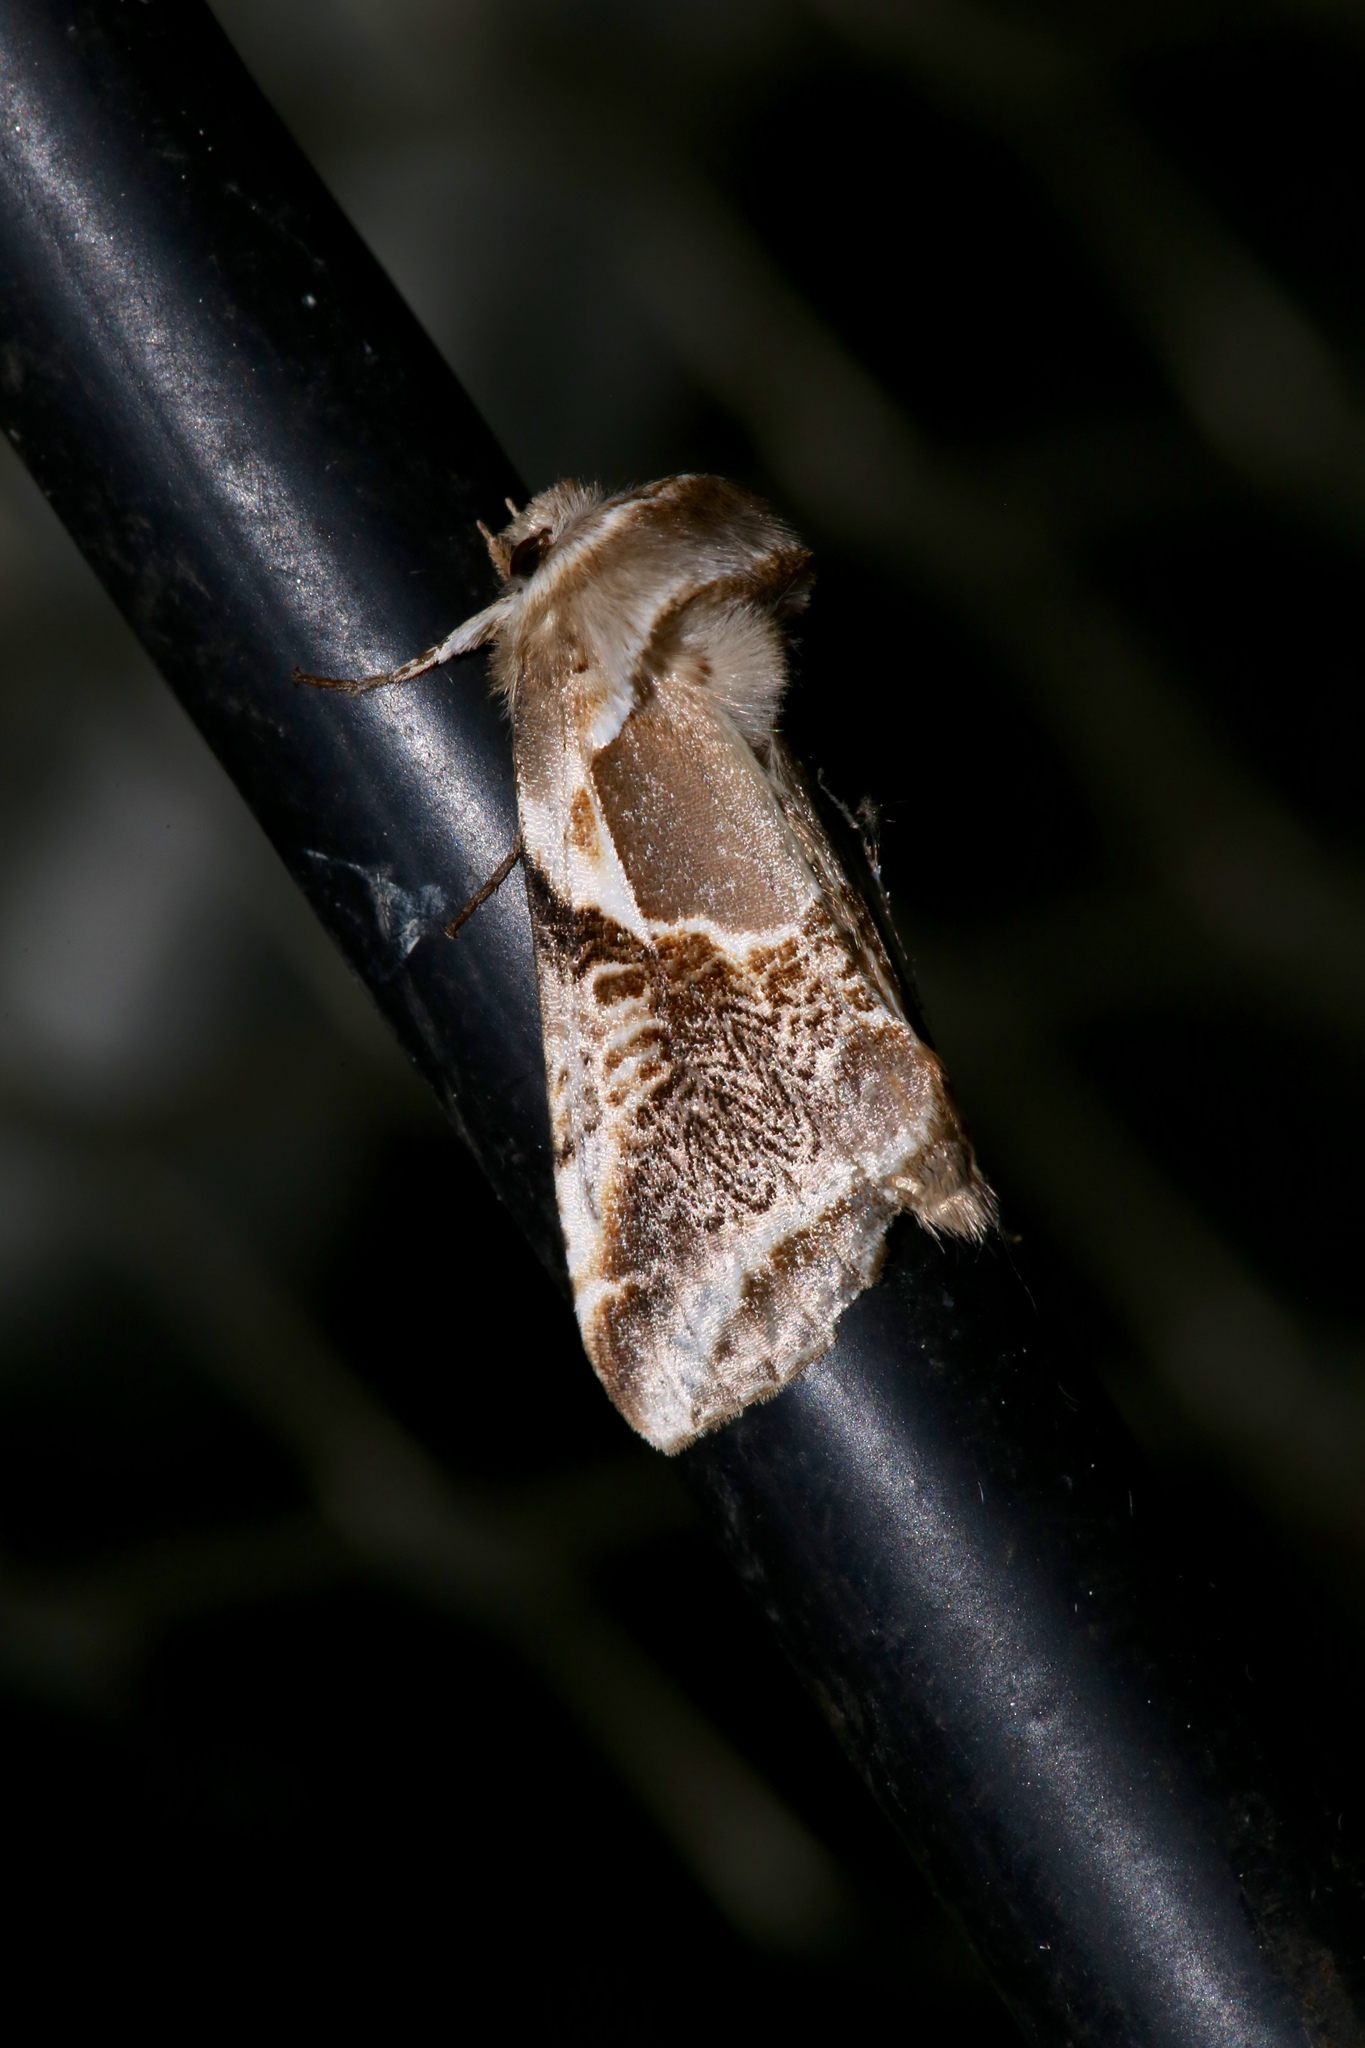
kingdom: Animalia
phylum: Arthropoda
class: Insecta
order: Lepidoptera
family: Drepanidae
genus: Habrosyne
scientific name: Habrosyne scripta
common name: Lettered habrosyne moth
